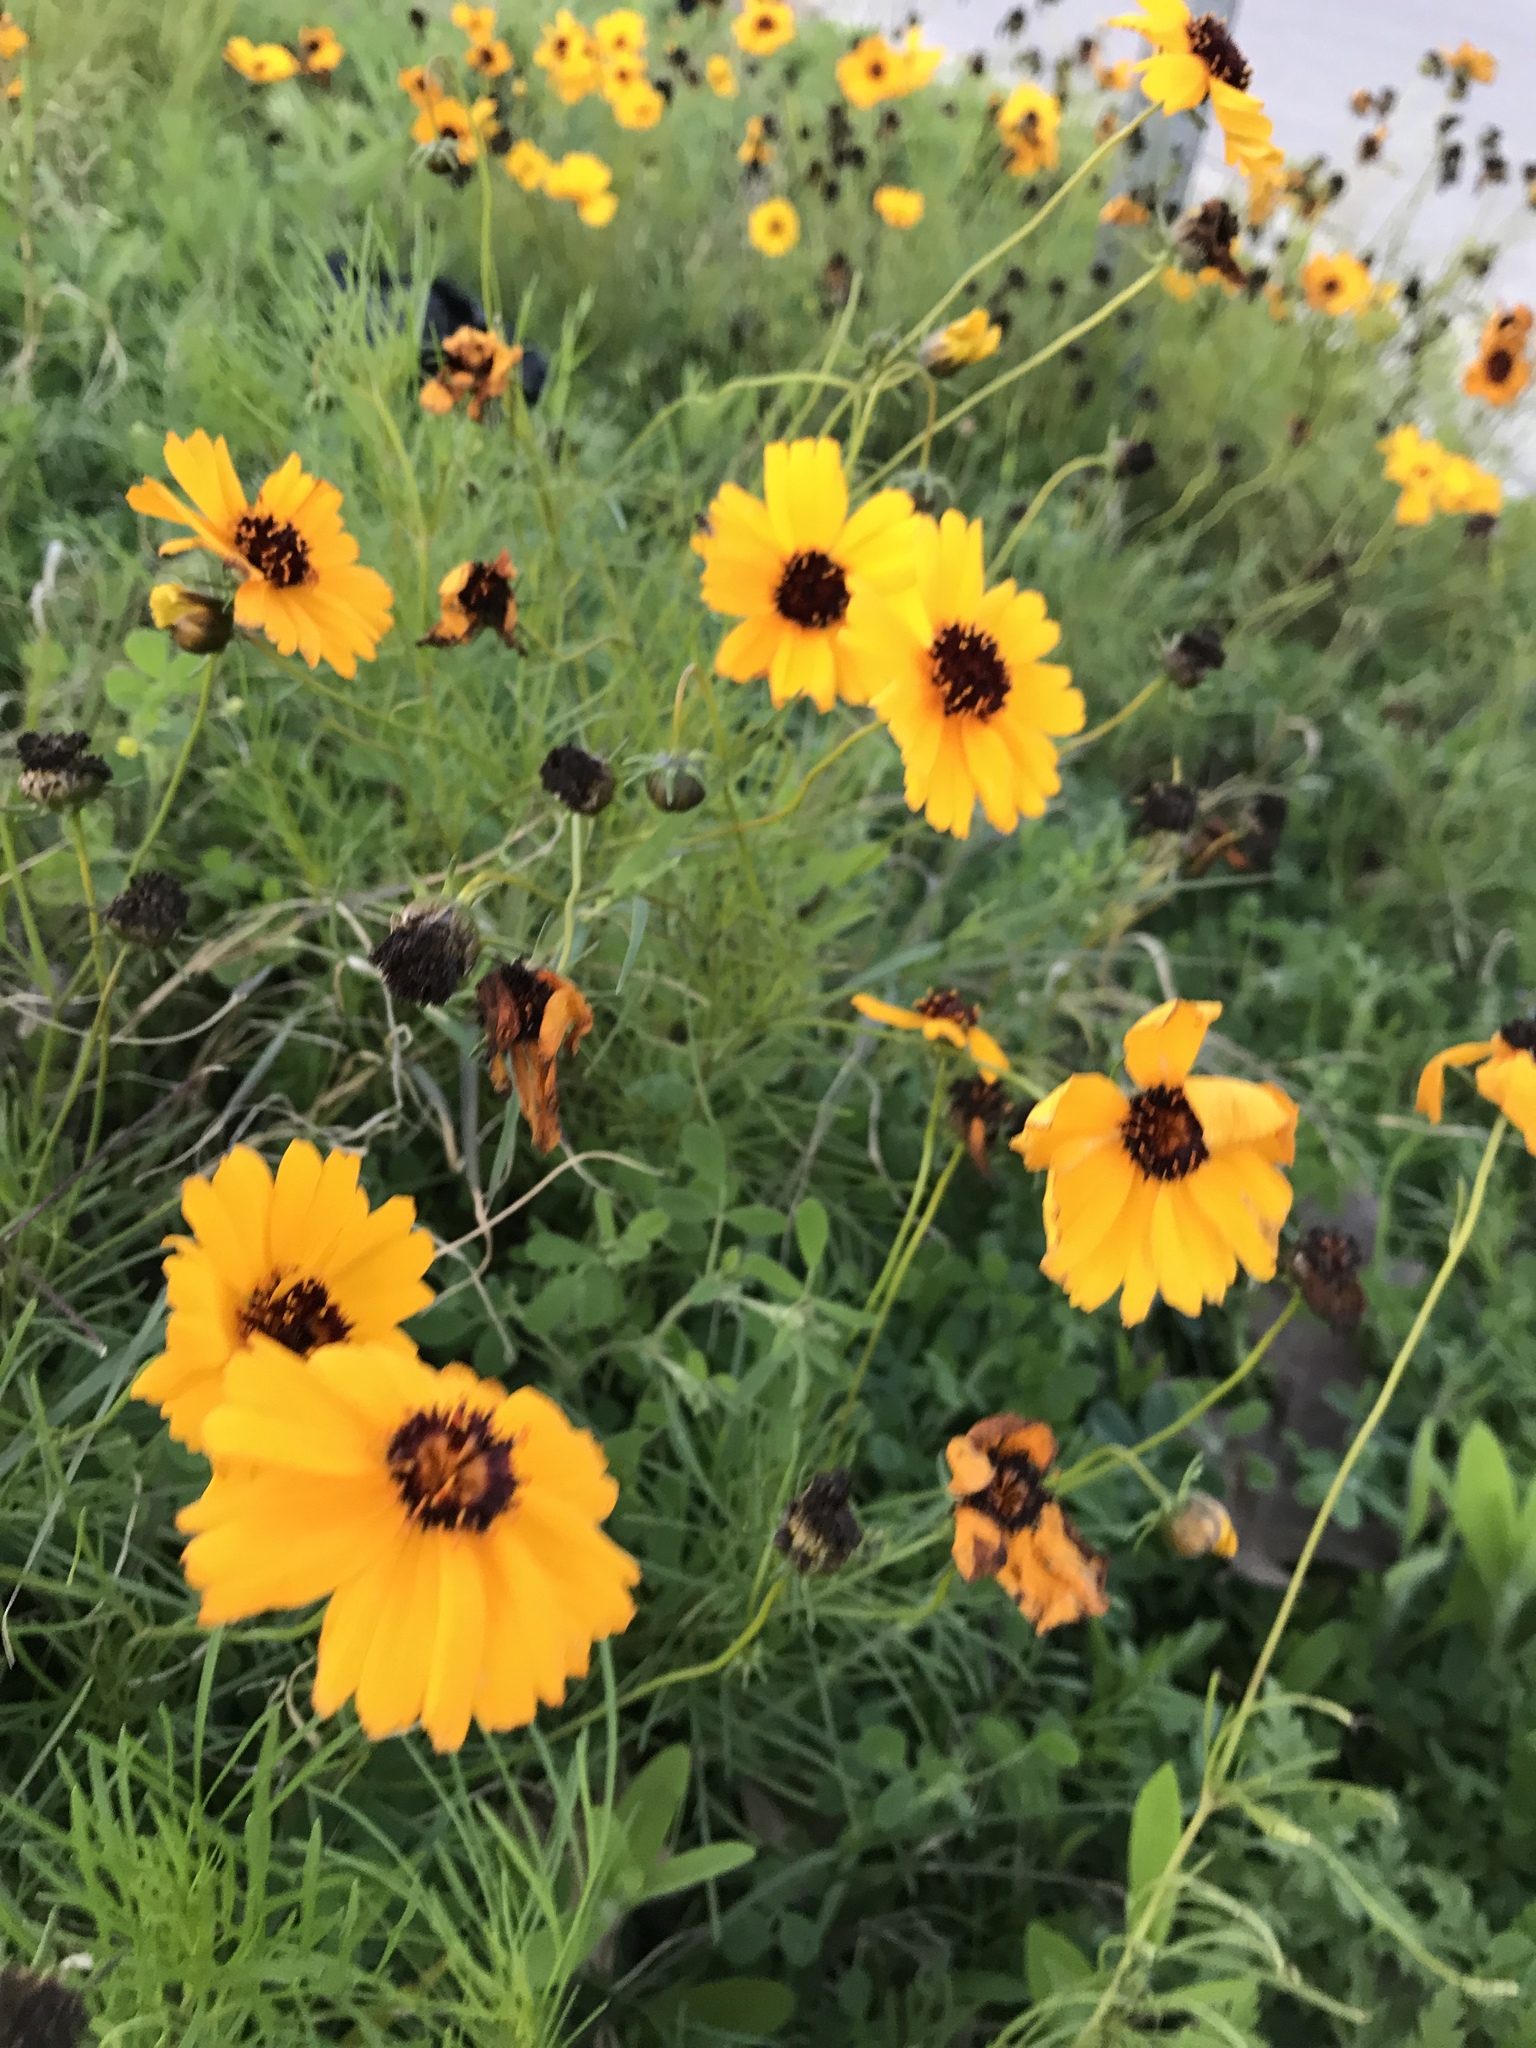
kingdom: Plantae
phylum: Tracheophyta
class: Magnoliopsida
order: Asterales
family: Asteraceae
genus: Thelesperma
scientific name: Thelesperma filifolium
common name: Stiff greenthread
